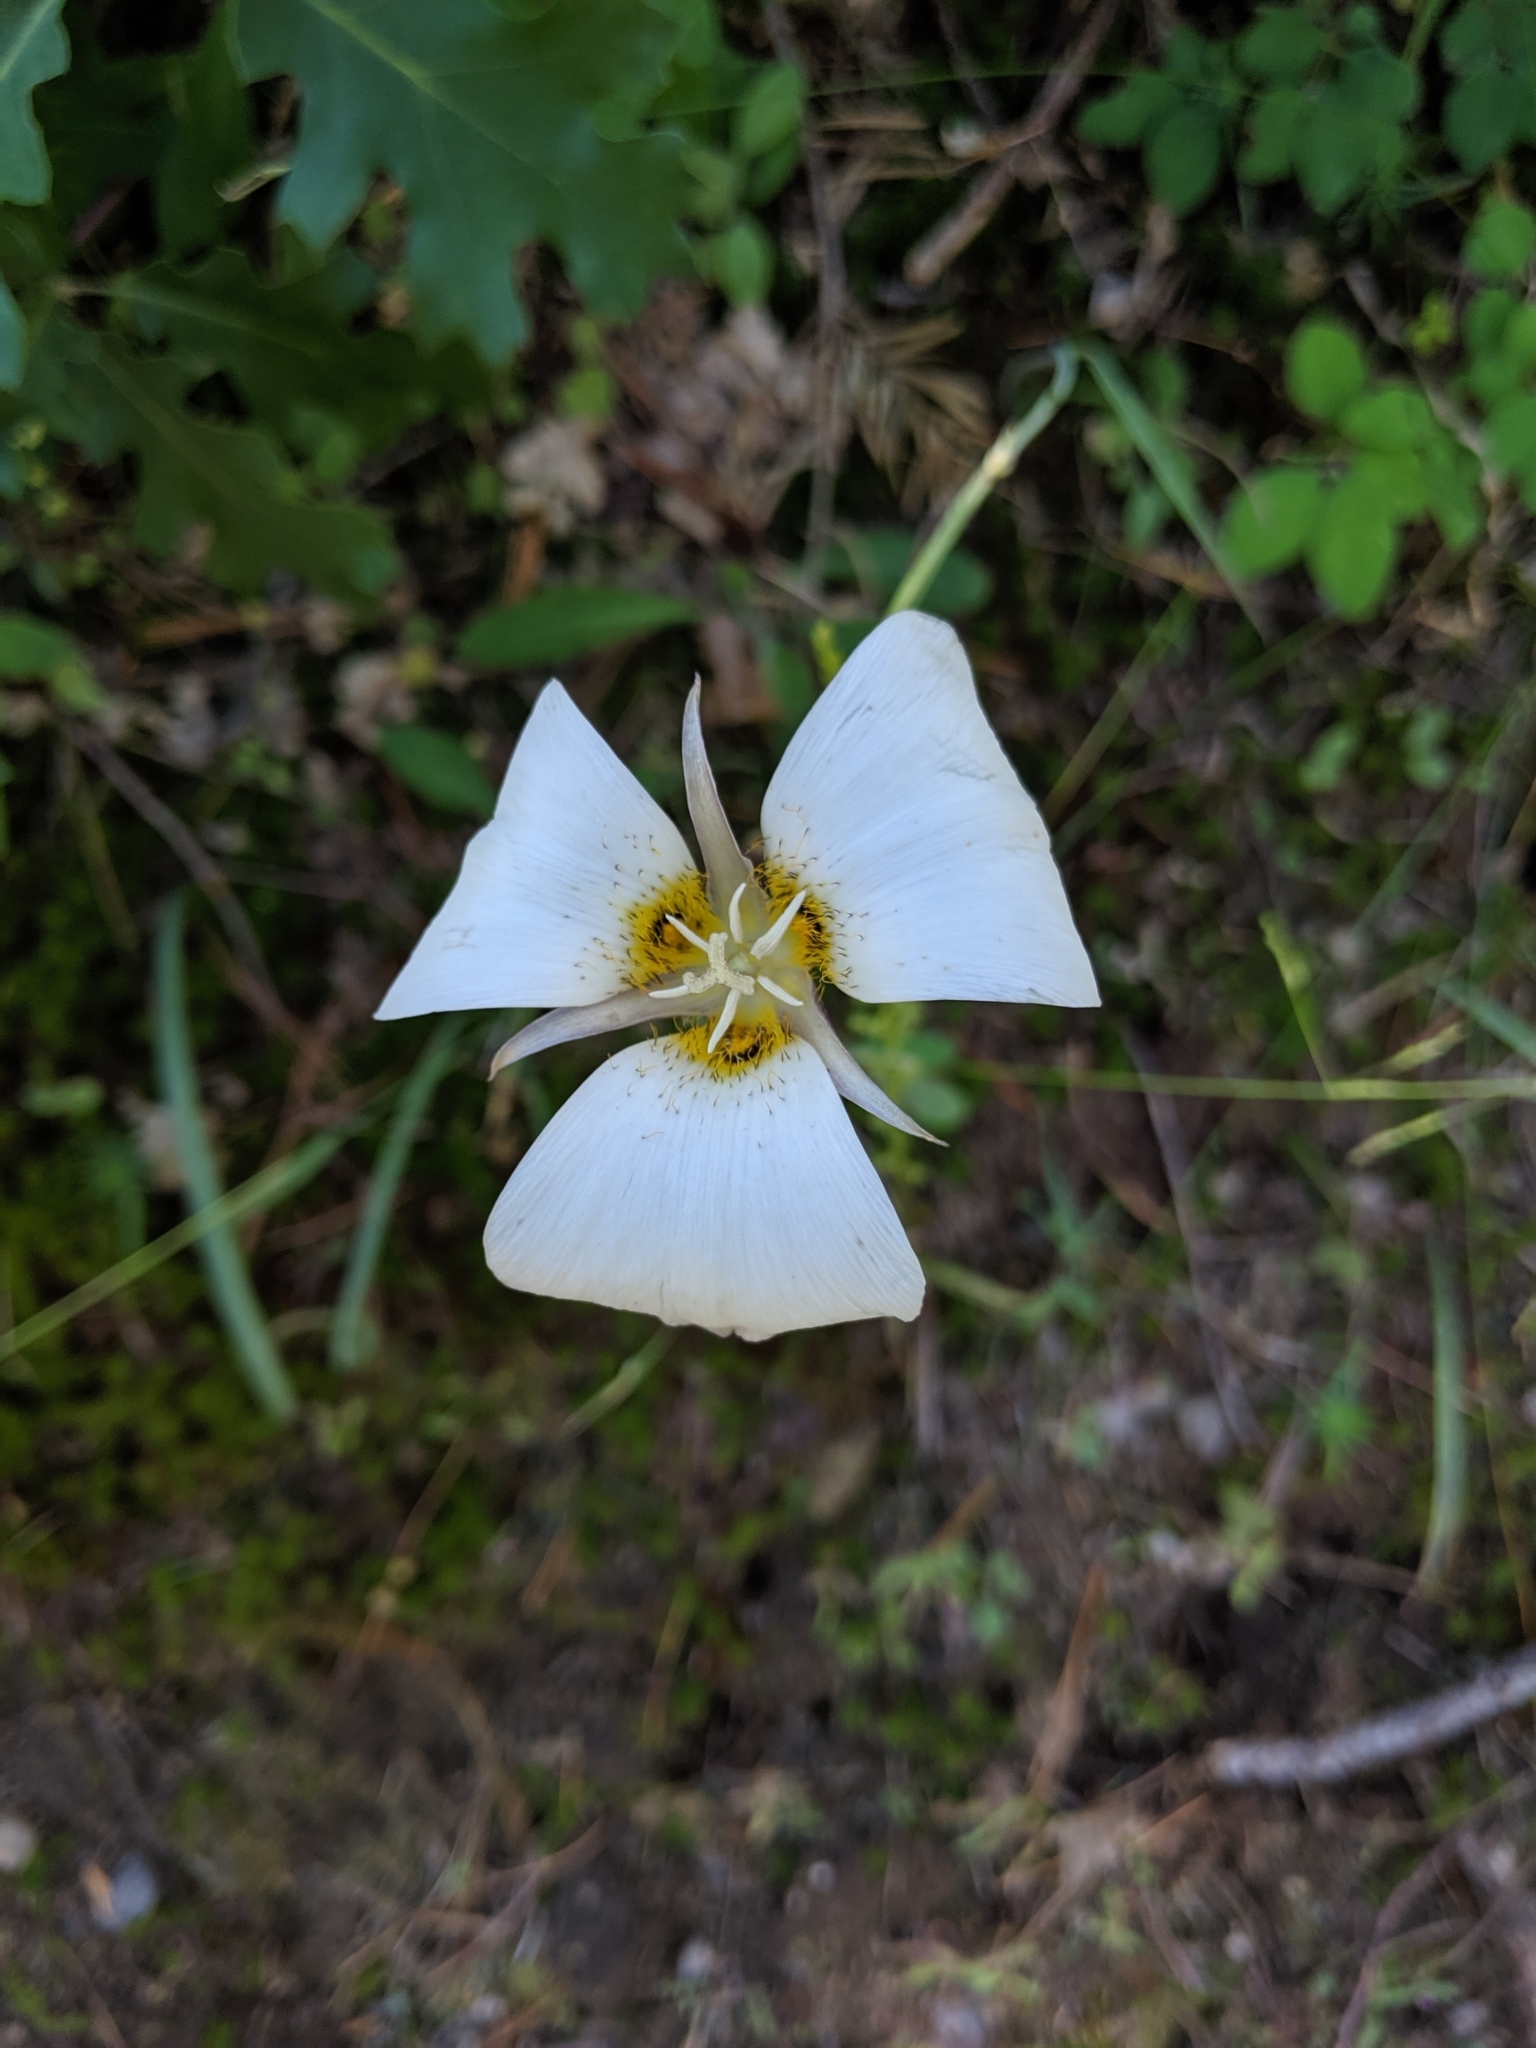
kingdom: Plantae
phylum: Tracheophyta
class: Liliopsida
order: Liliales
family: Liliaceae
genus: Calochortus
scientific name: Calochortus leichtlinii
